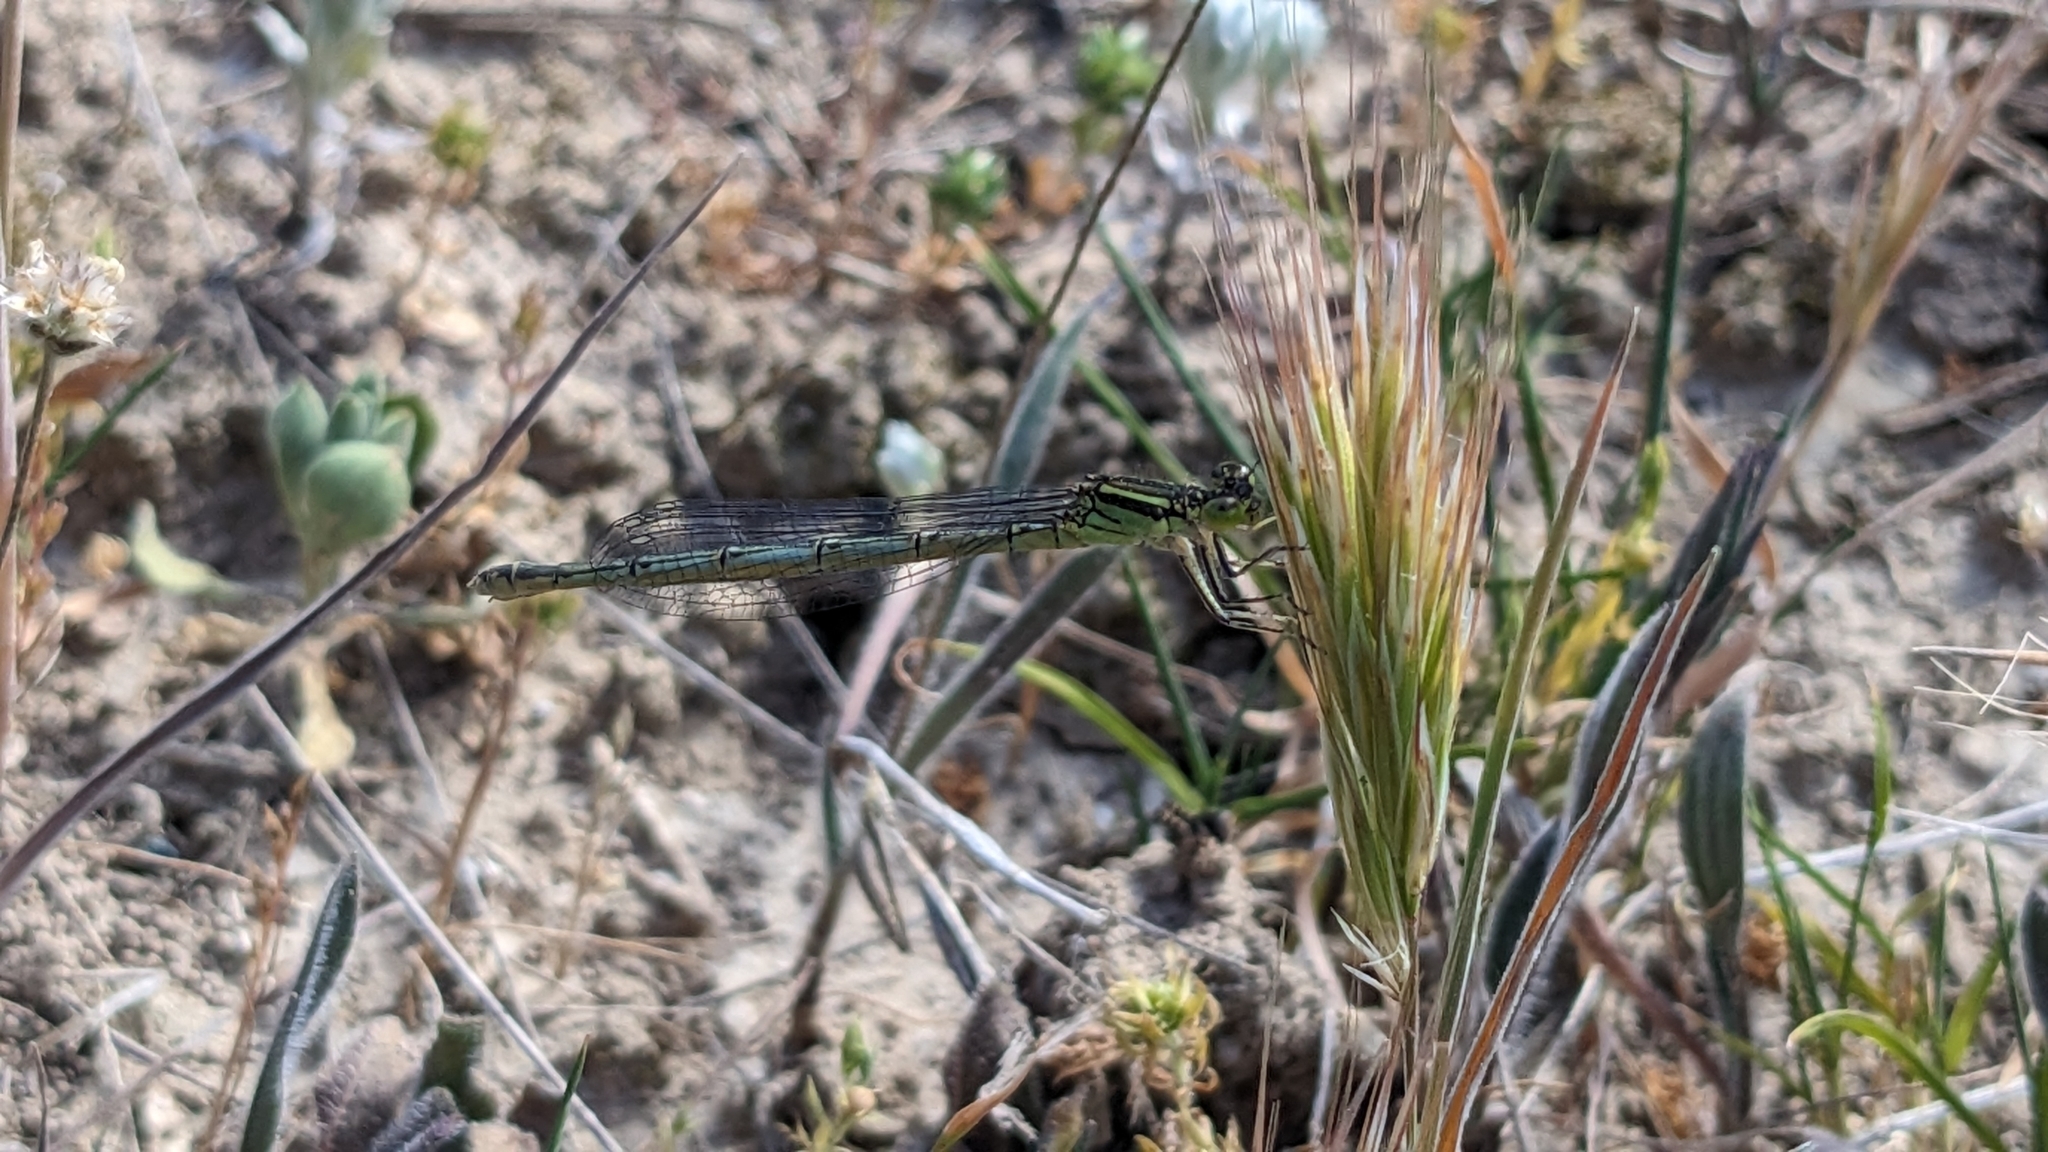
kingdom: Animalia
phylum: Arthropoda
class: Insecta
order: Odonata
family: Coenagrionidae
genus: Erythromma
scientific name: Erythromma lindenii
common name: Blue-eye
